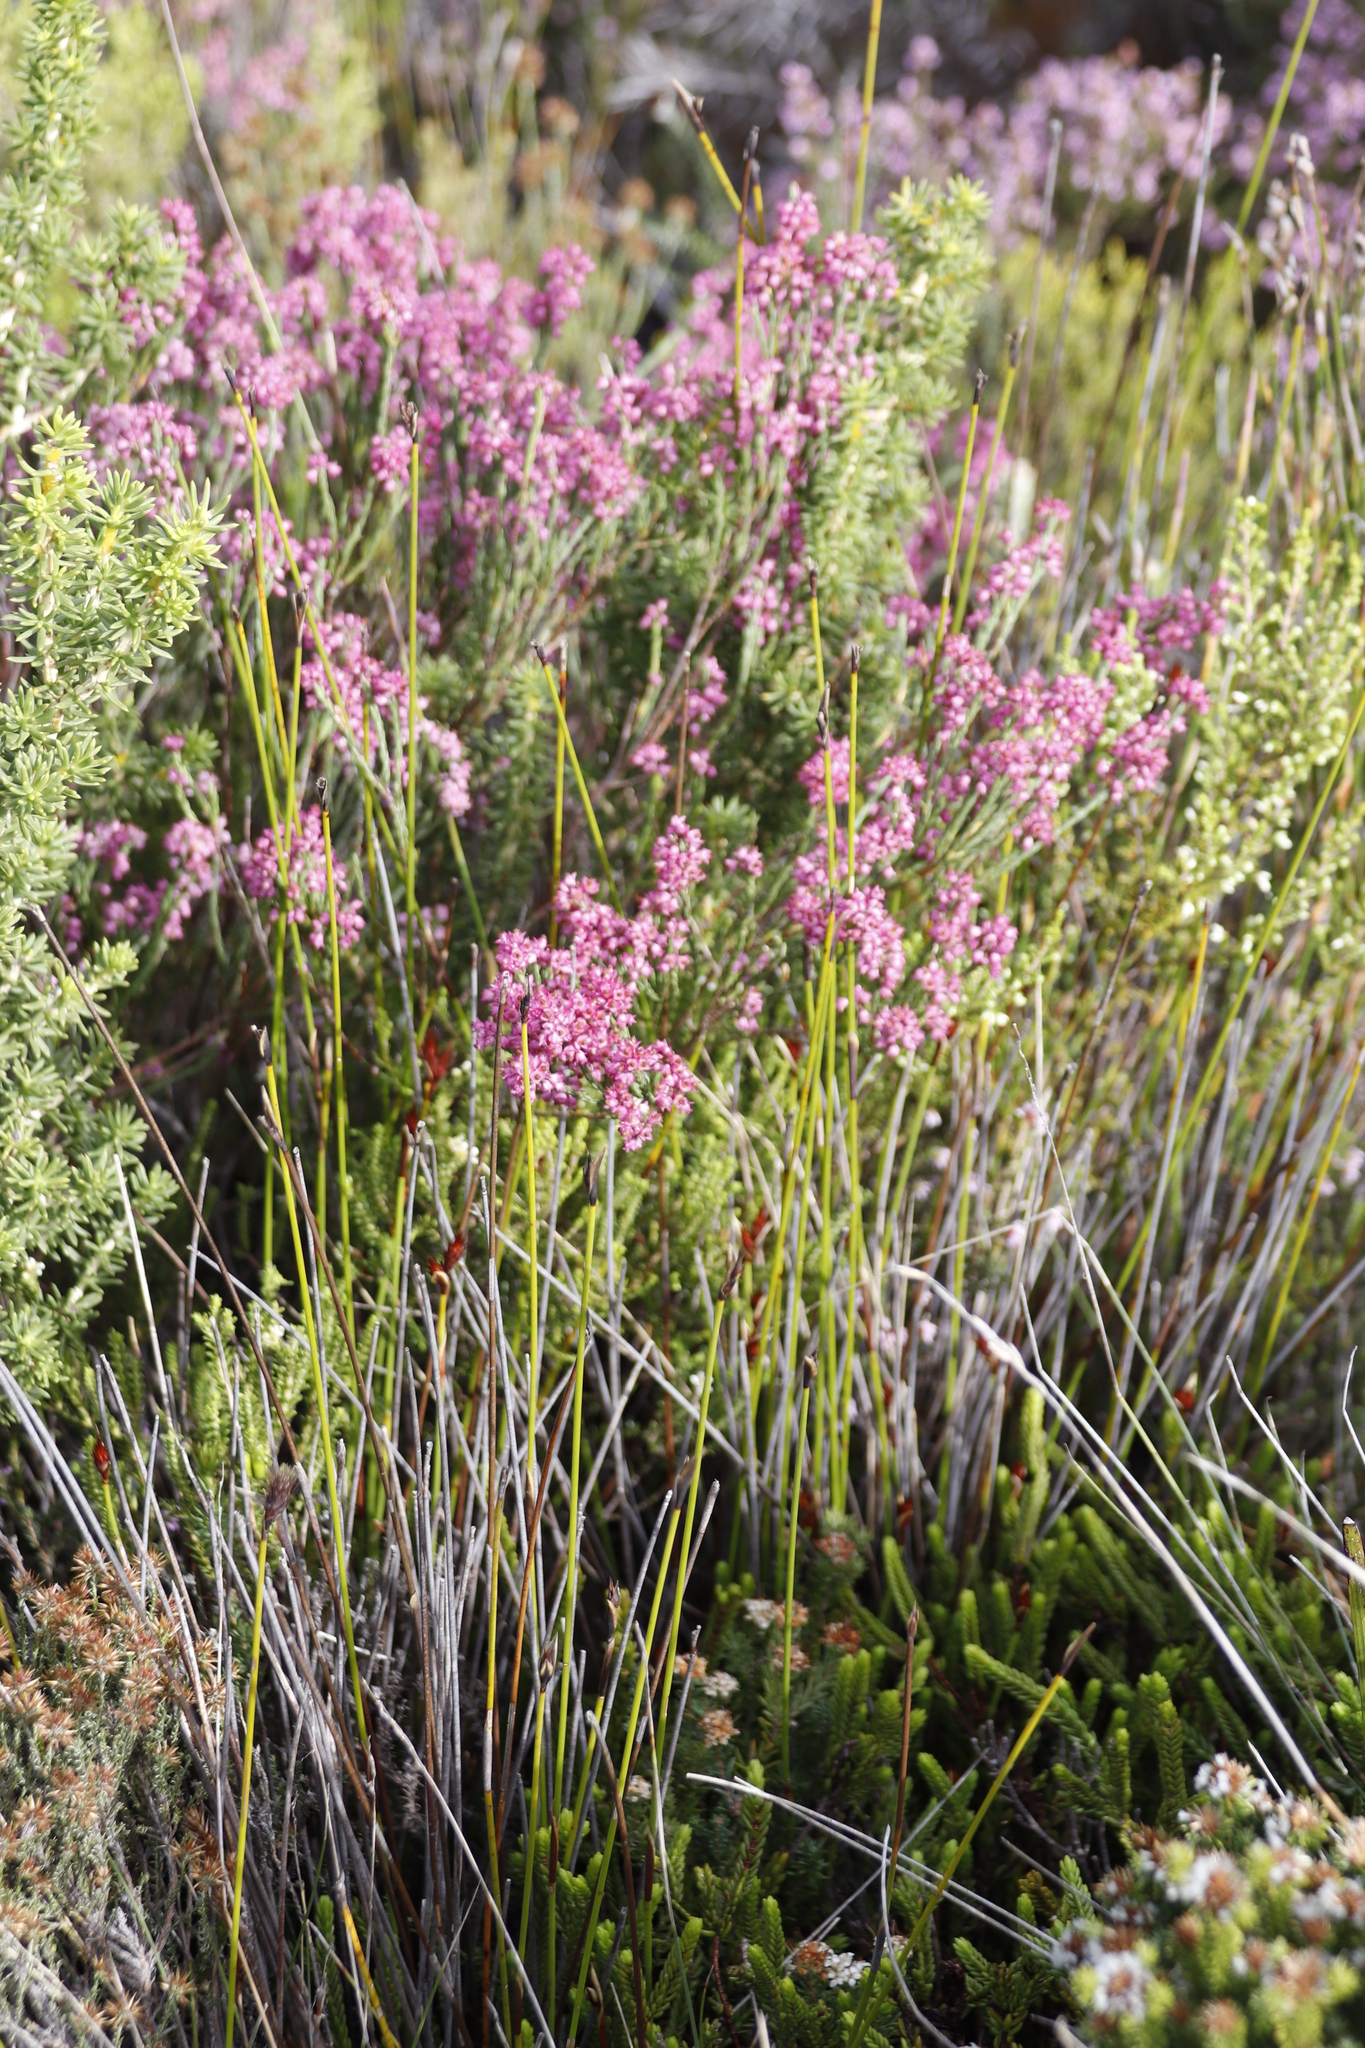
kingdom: Plantae
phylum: Tracheophyta
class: Magnoliopsida
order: Ericales
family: Ericaceae
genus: Erica
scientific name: Erica corifolia
